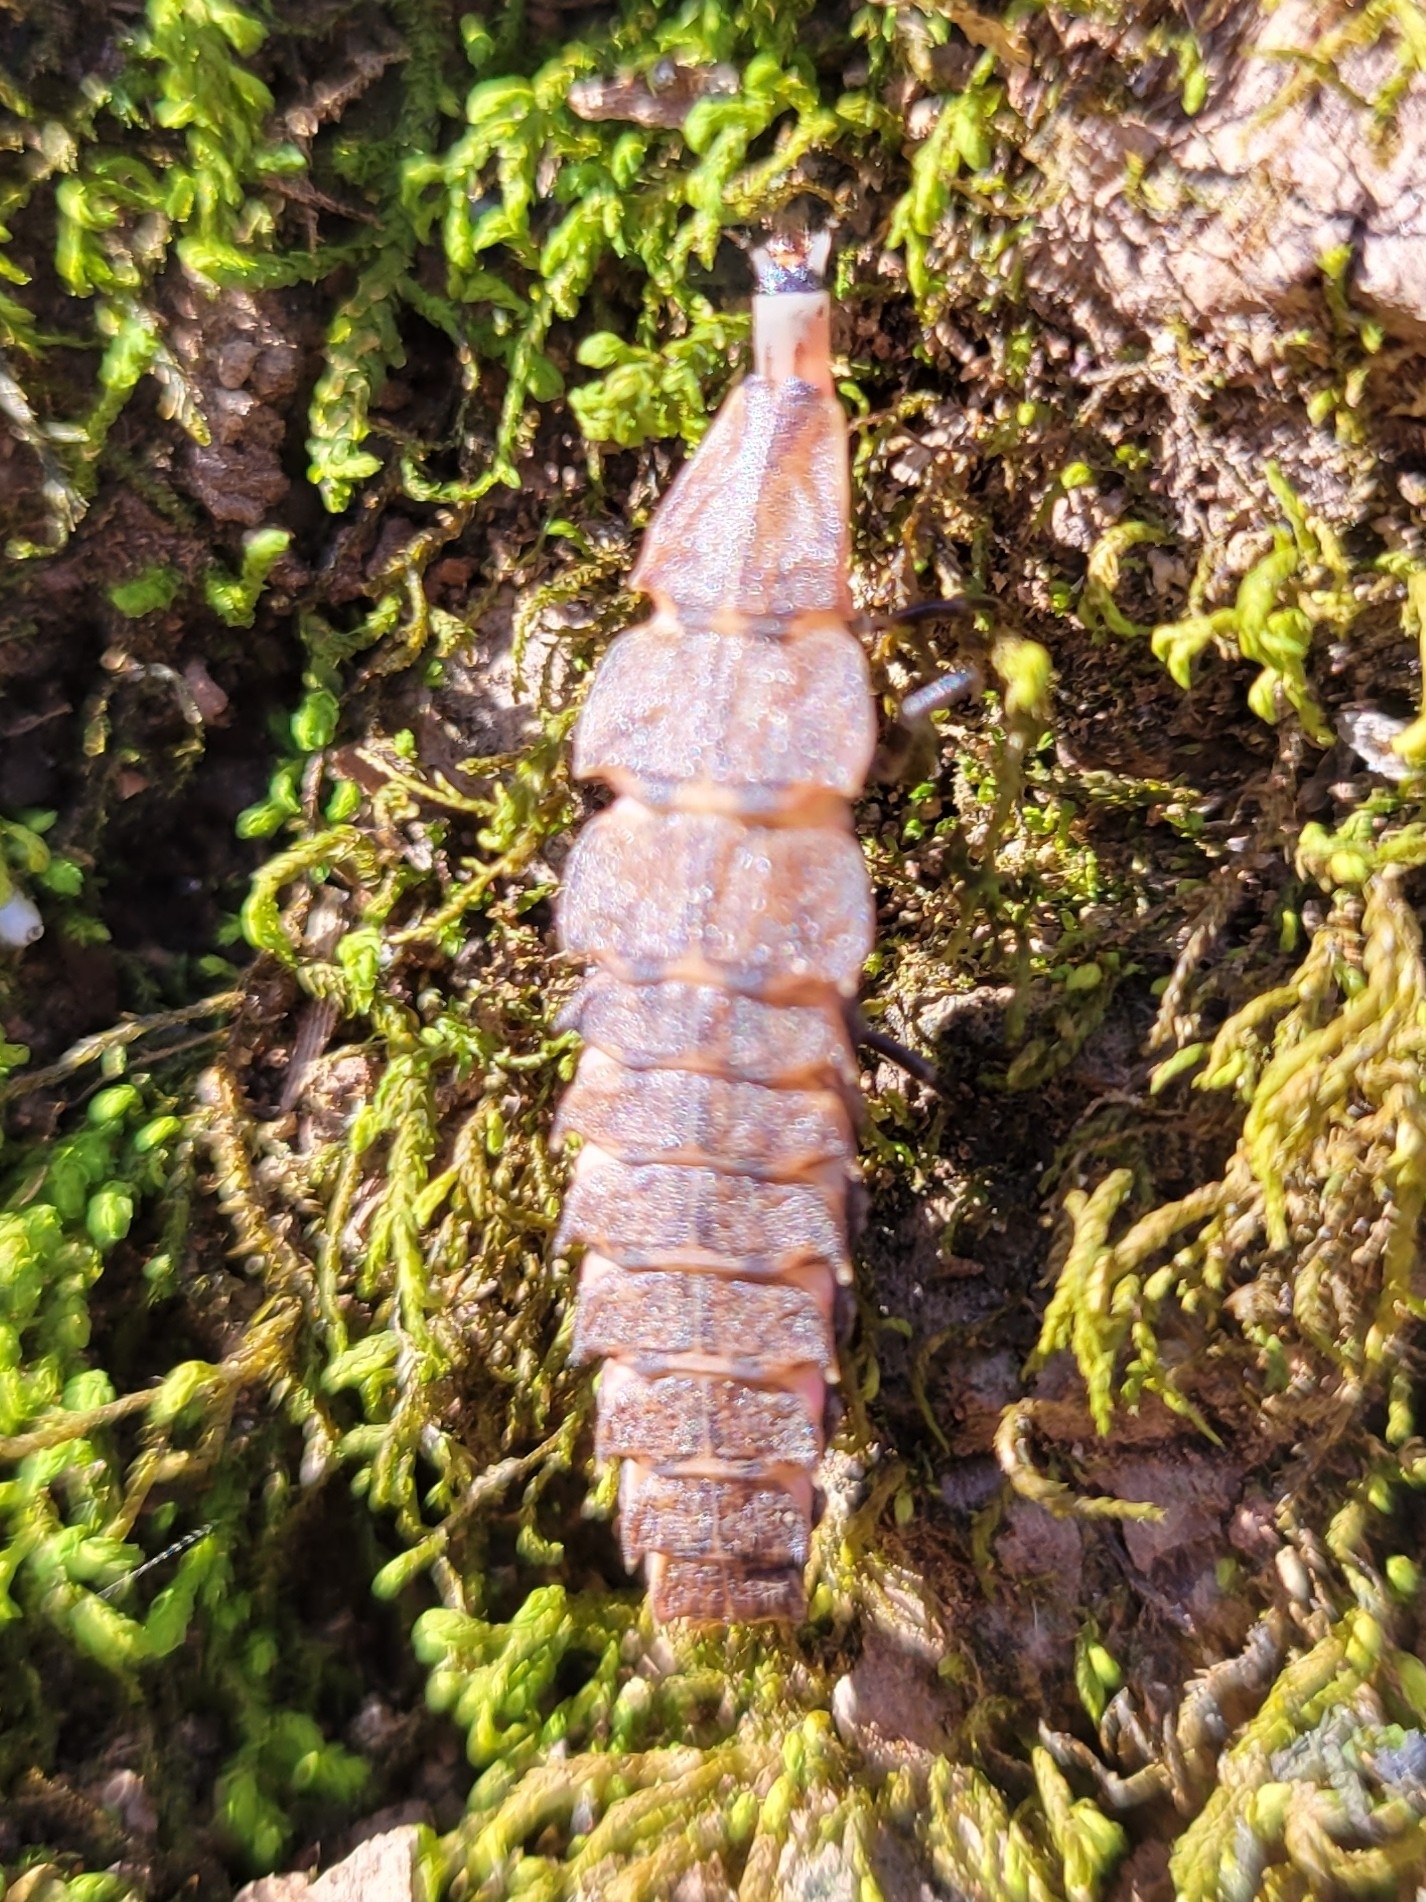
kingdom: Animalia
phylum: Arthropoda
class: Insecta
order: Coleoptera
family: Lampyridae
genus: Pyractomena
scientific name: Pyractomena borealis
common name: Northern firefly
